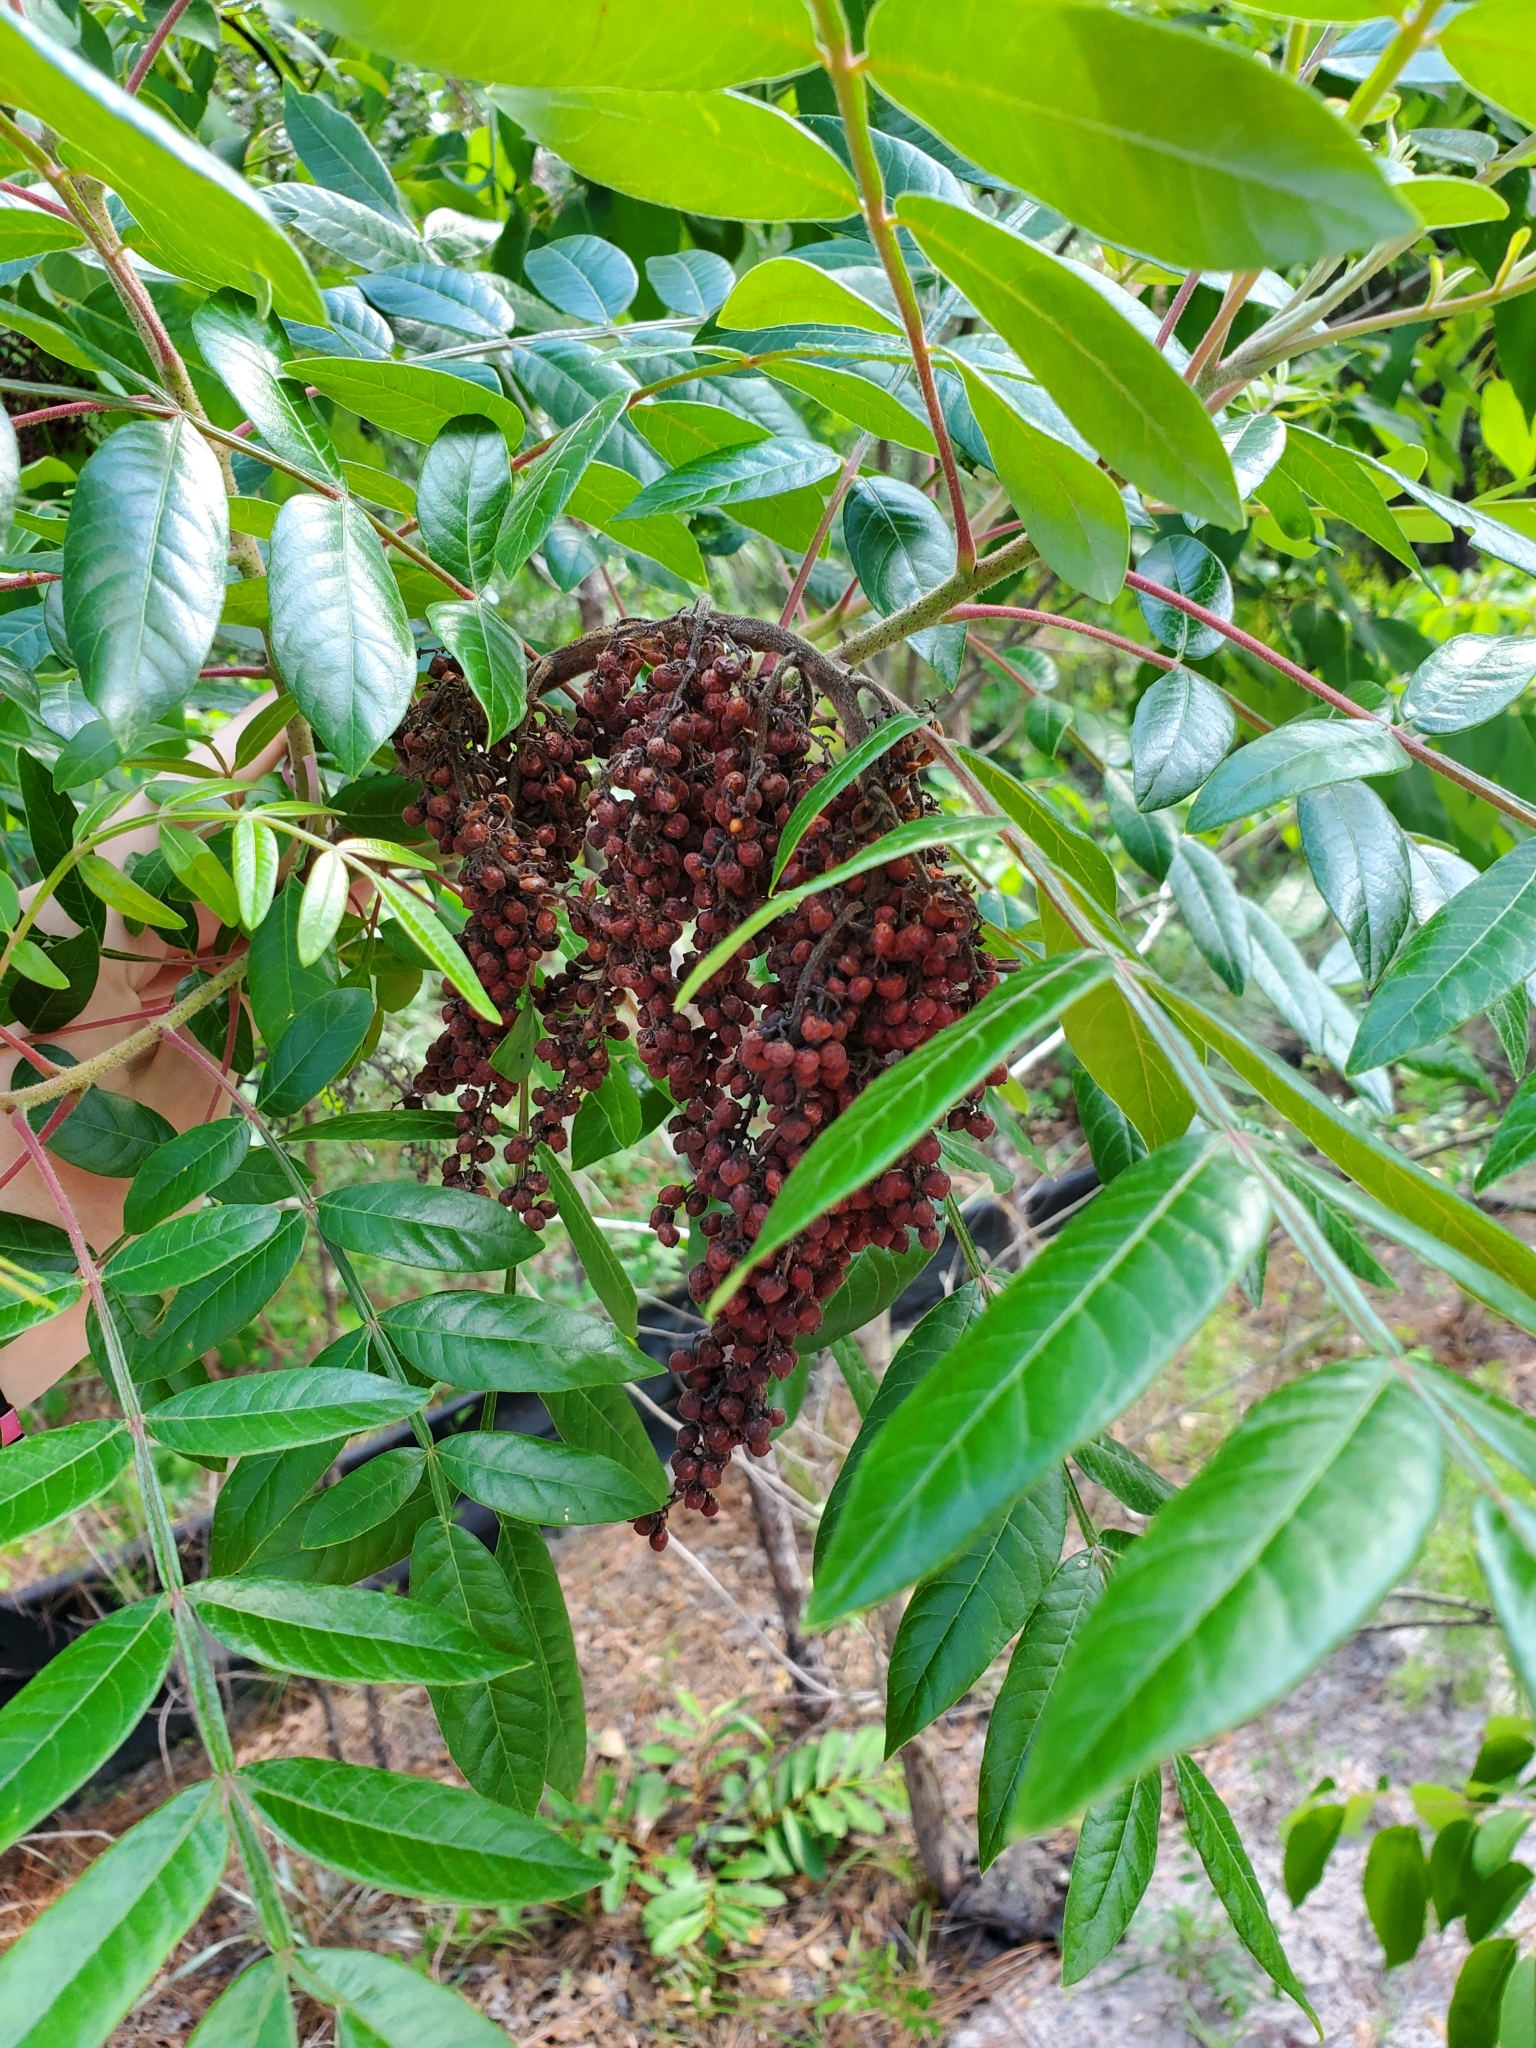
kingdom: Plantae
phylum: Tracheophyta
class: Magnoliopsida
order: Sapindales
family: Anacardiaceae
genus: Rhus
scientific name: Rhus copallina
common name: Shining sumac
